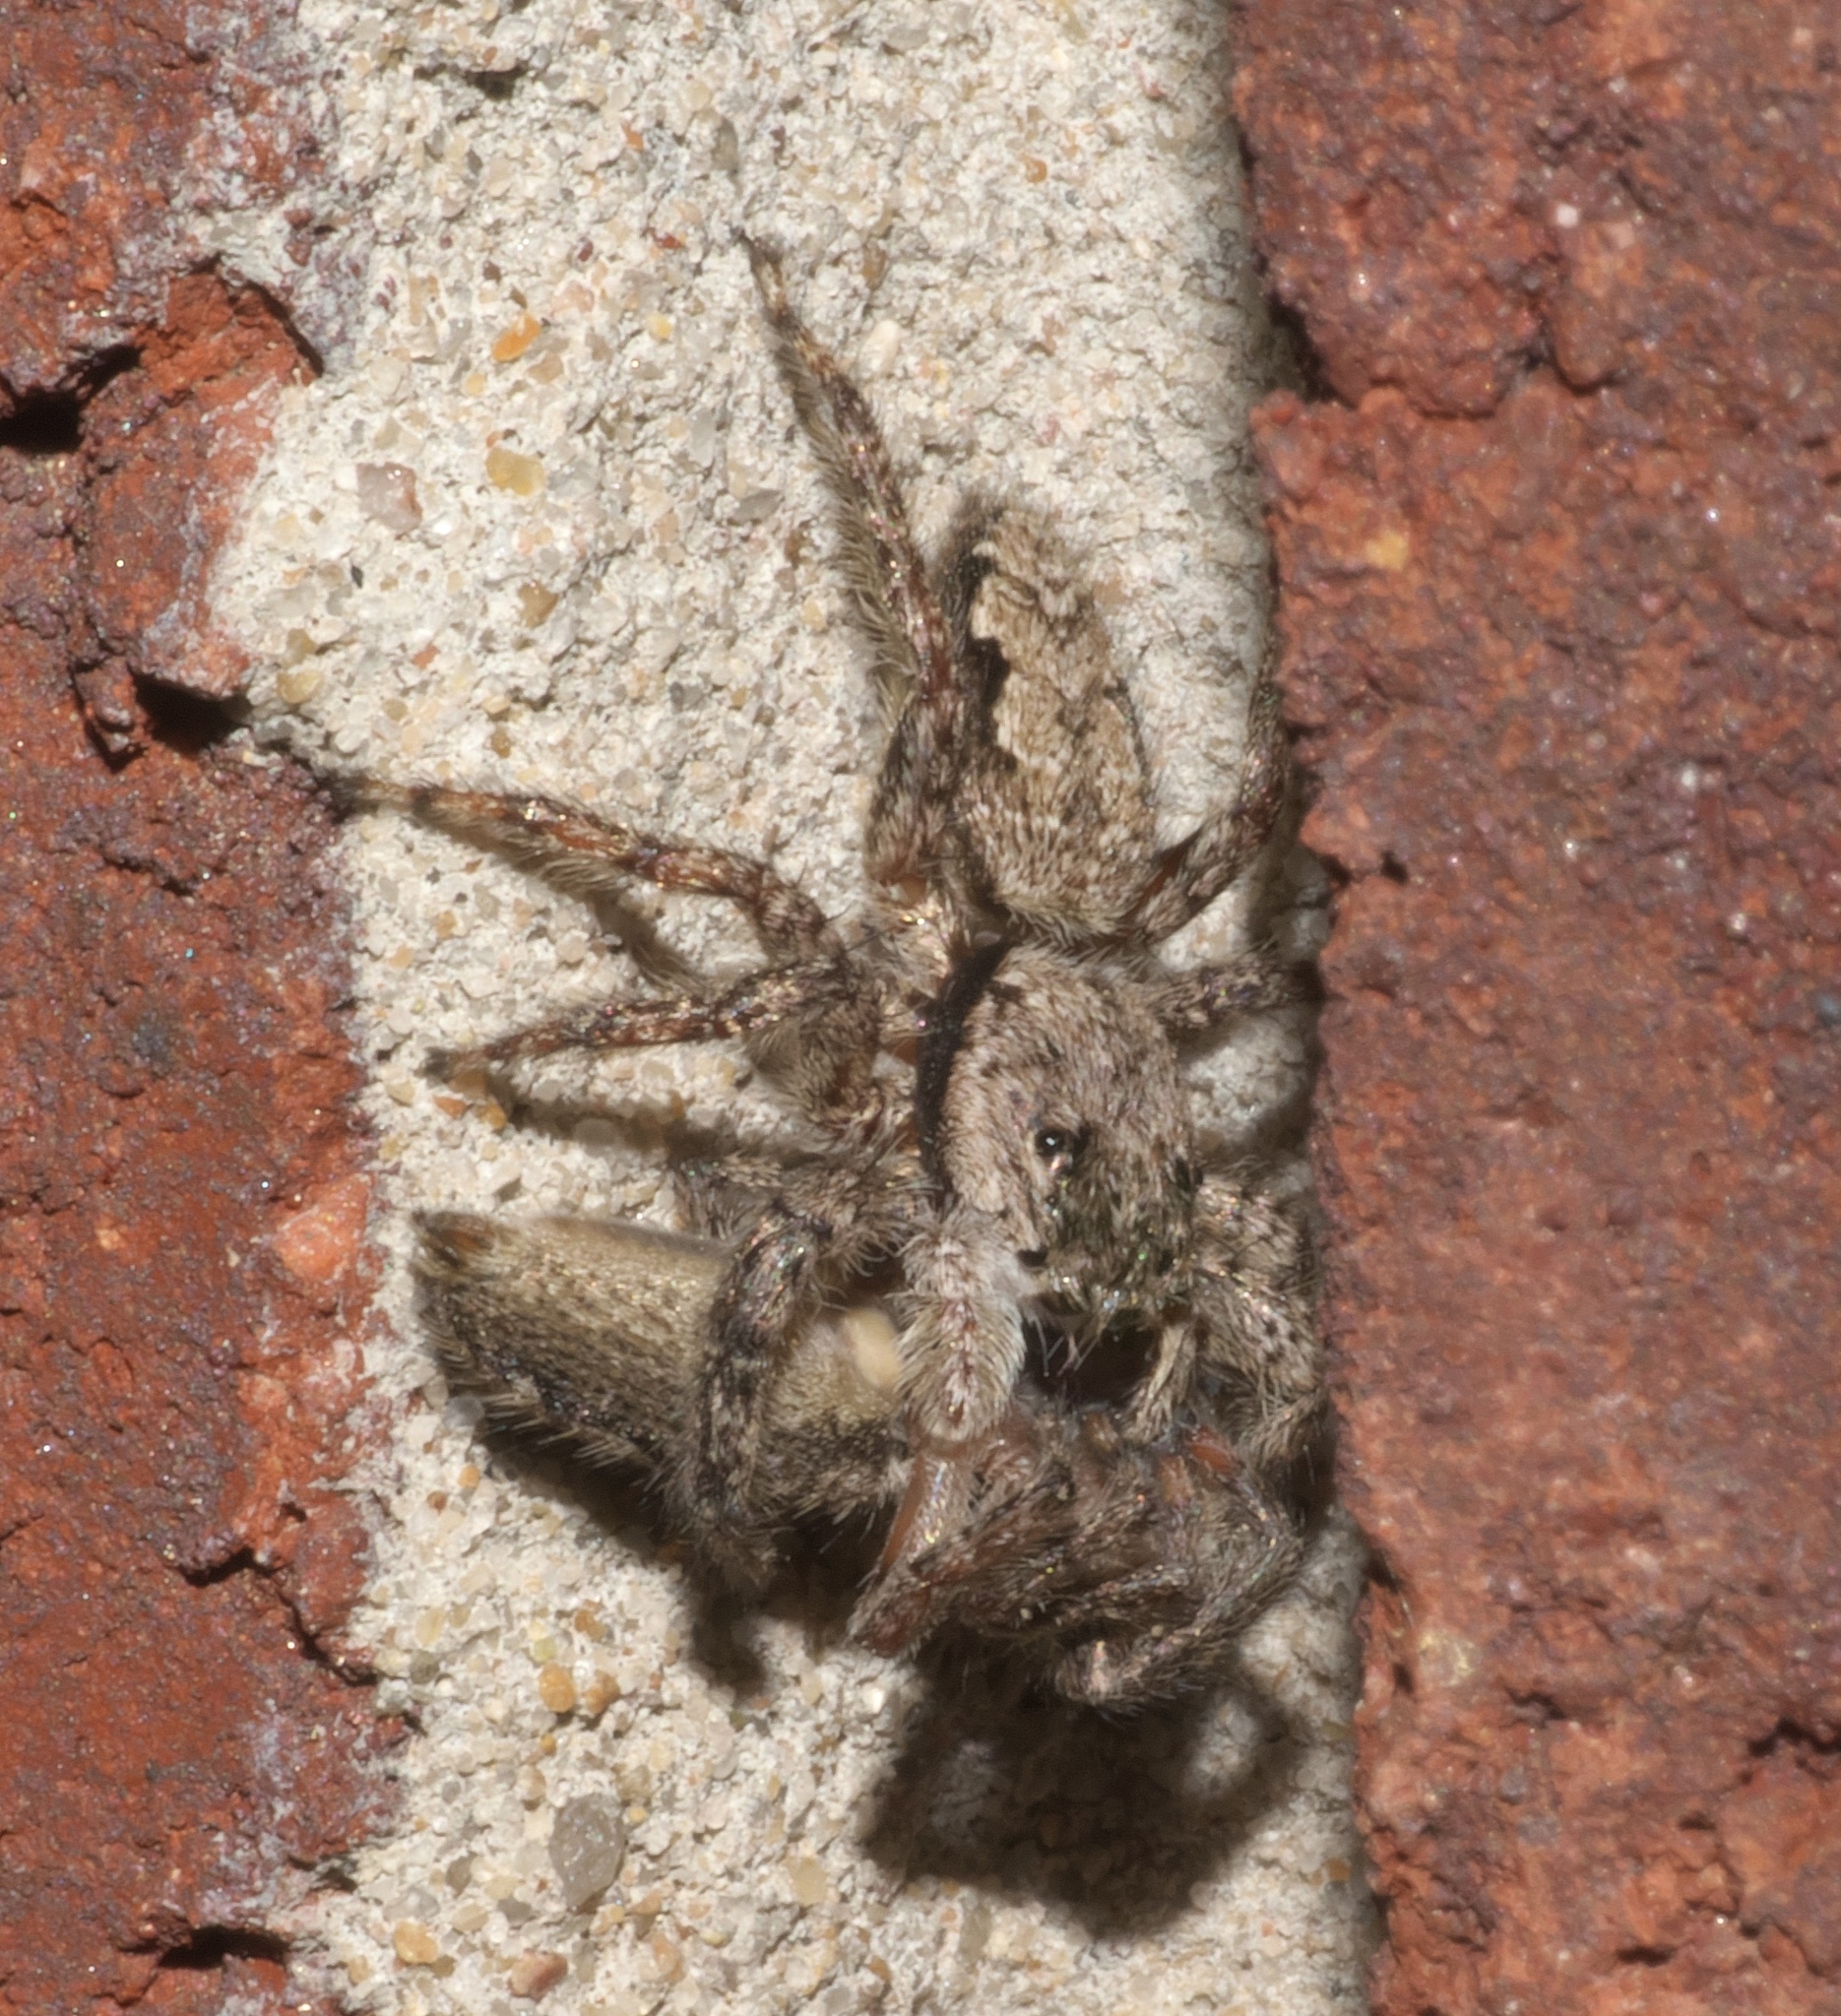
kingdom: Animalia
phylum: Arthropoda
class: Arachnida
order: Araneae
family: Salticidae
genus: Platycryptus
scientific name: Platycryptus undatus
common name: Tan jumping spider
